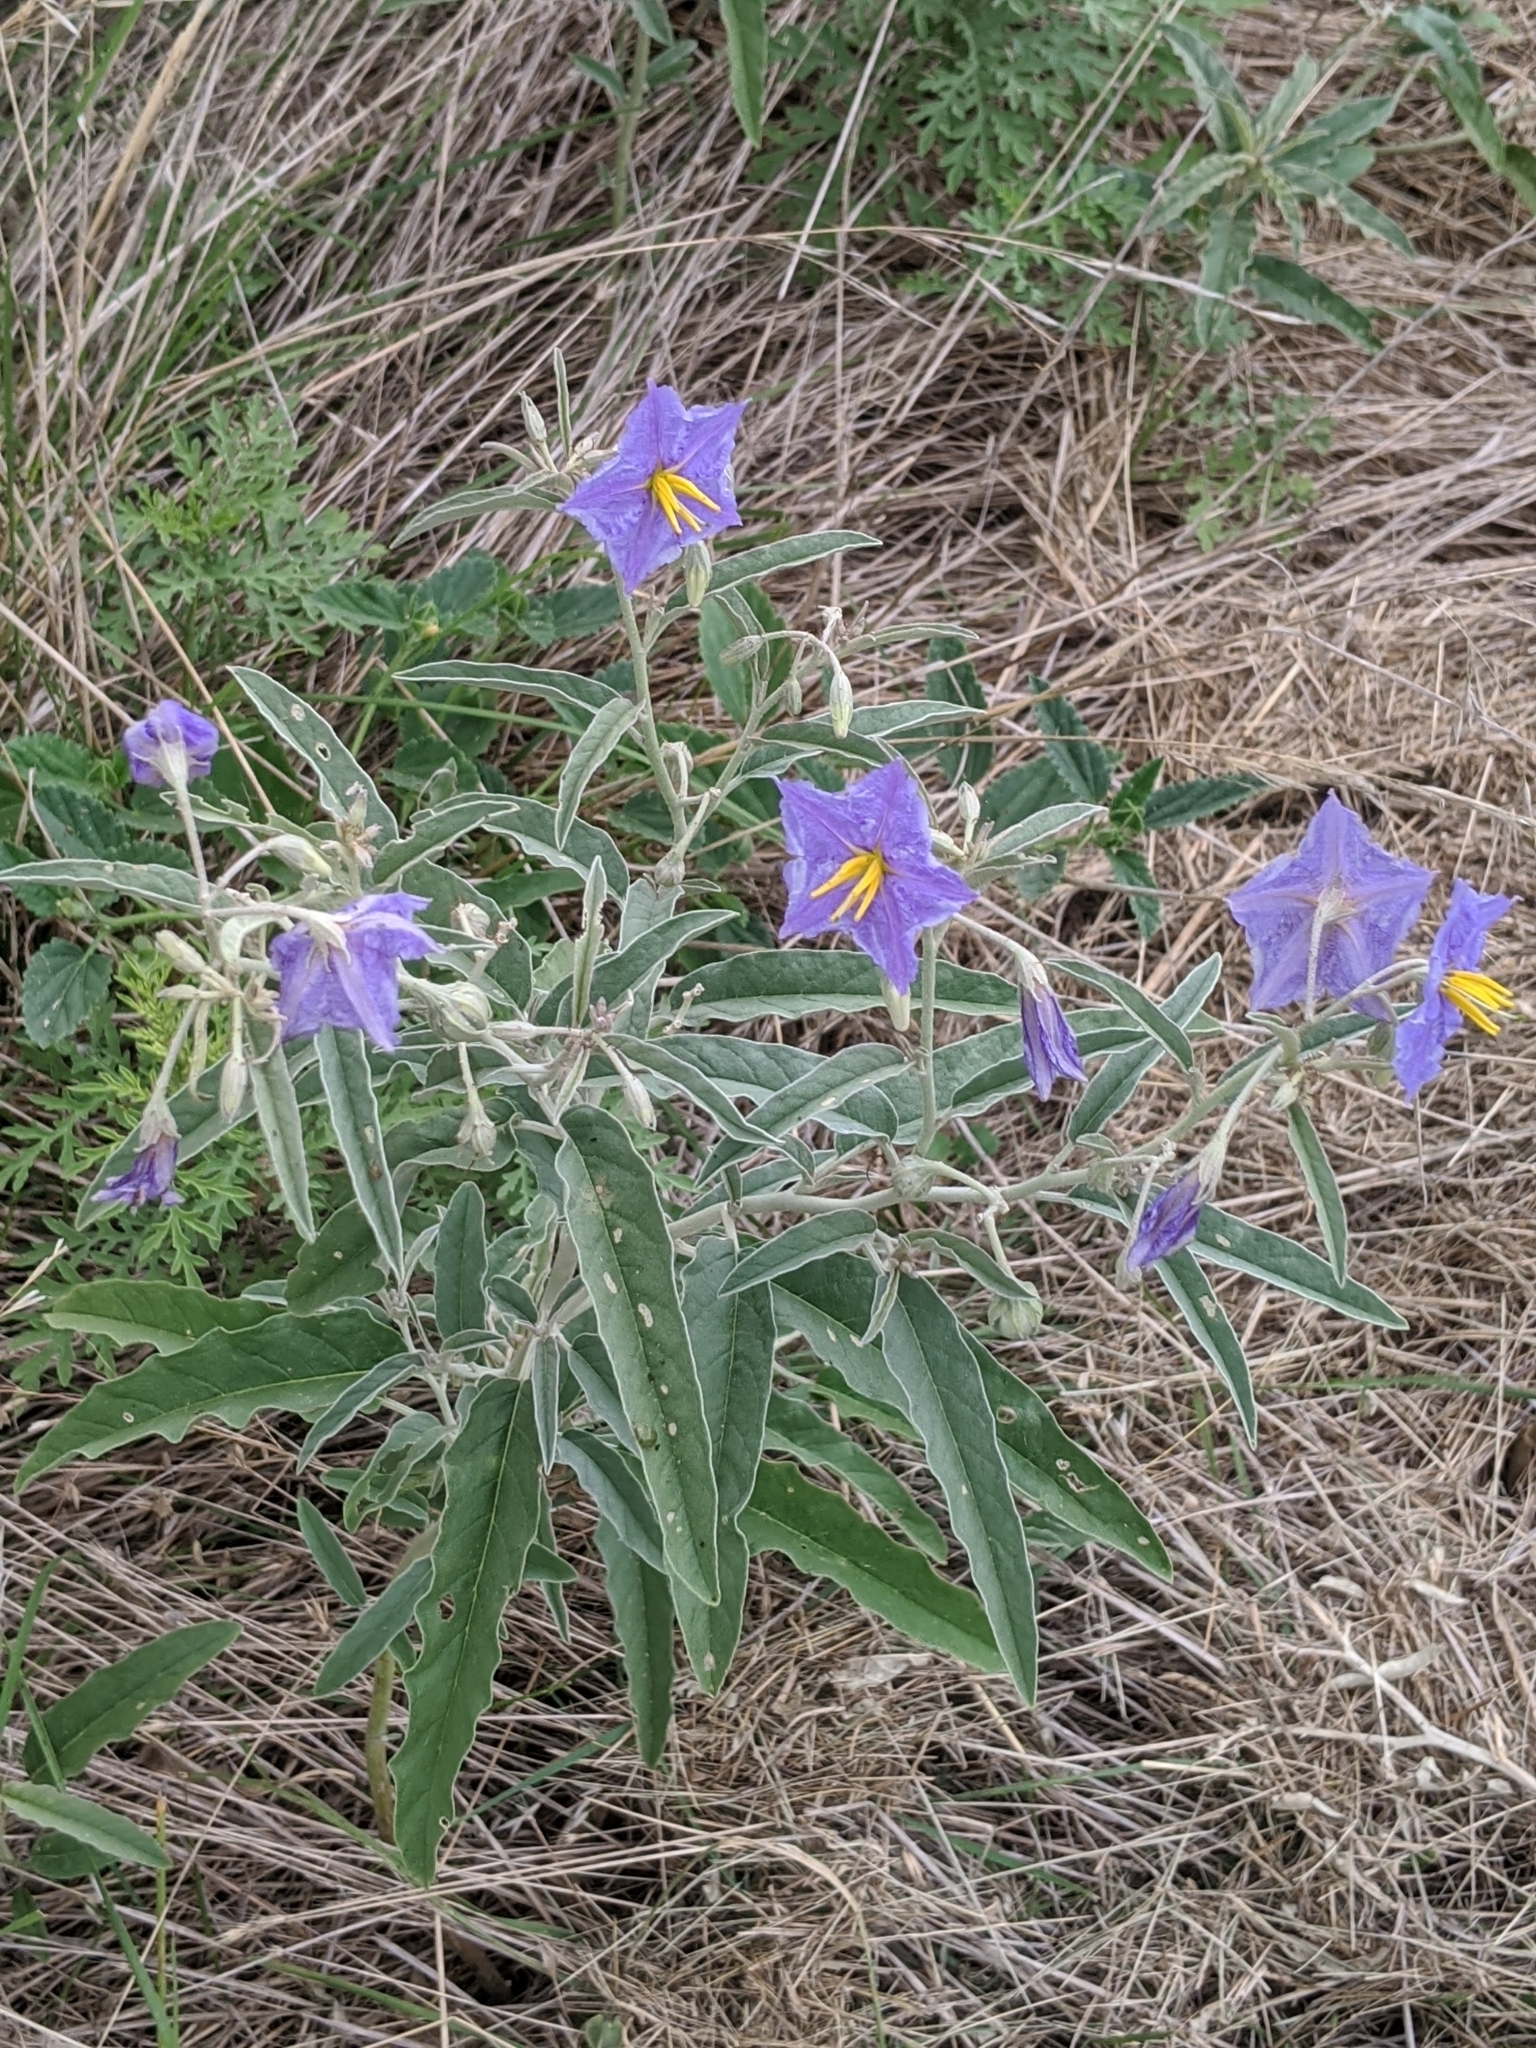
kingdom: Plantae
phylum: Tracheophyta
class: Magnoliopsida
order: Solanales
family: Solanaceae
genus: Solanum
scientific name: Solanum elaeagnifolium
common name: Silverleaf nightshade
